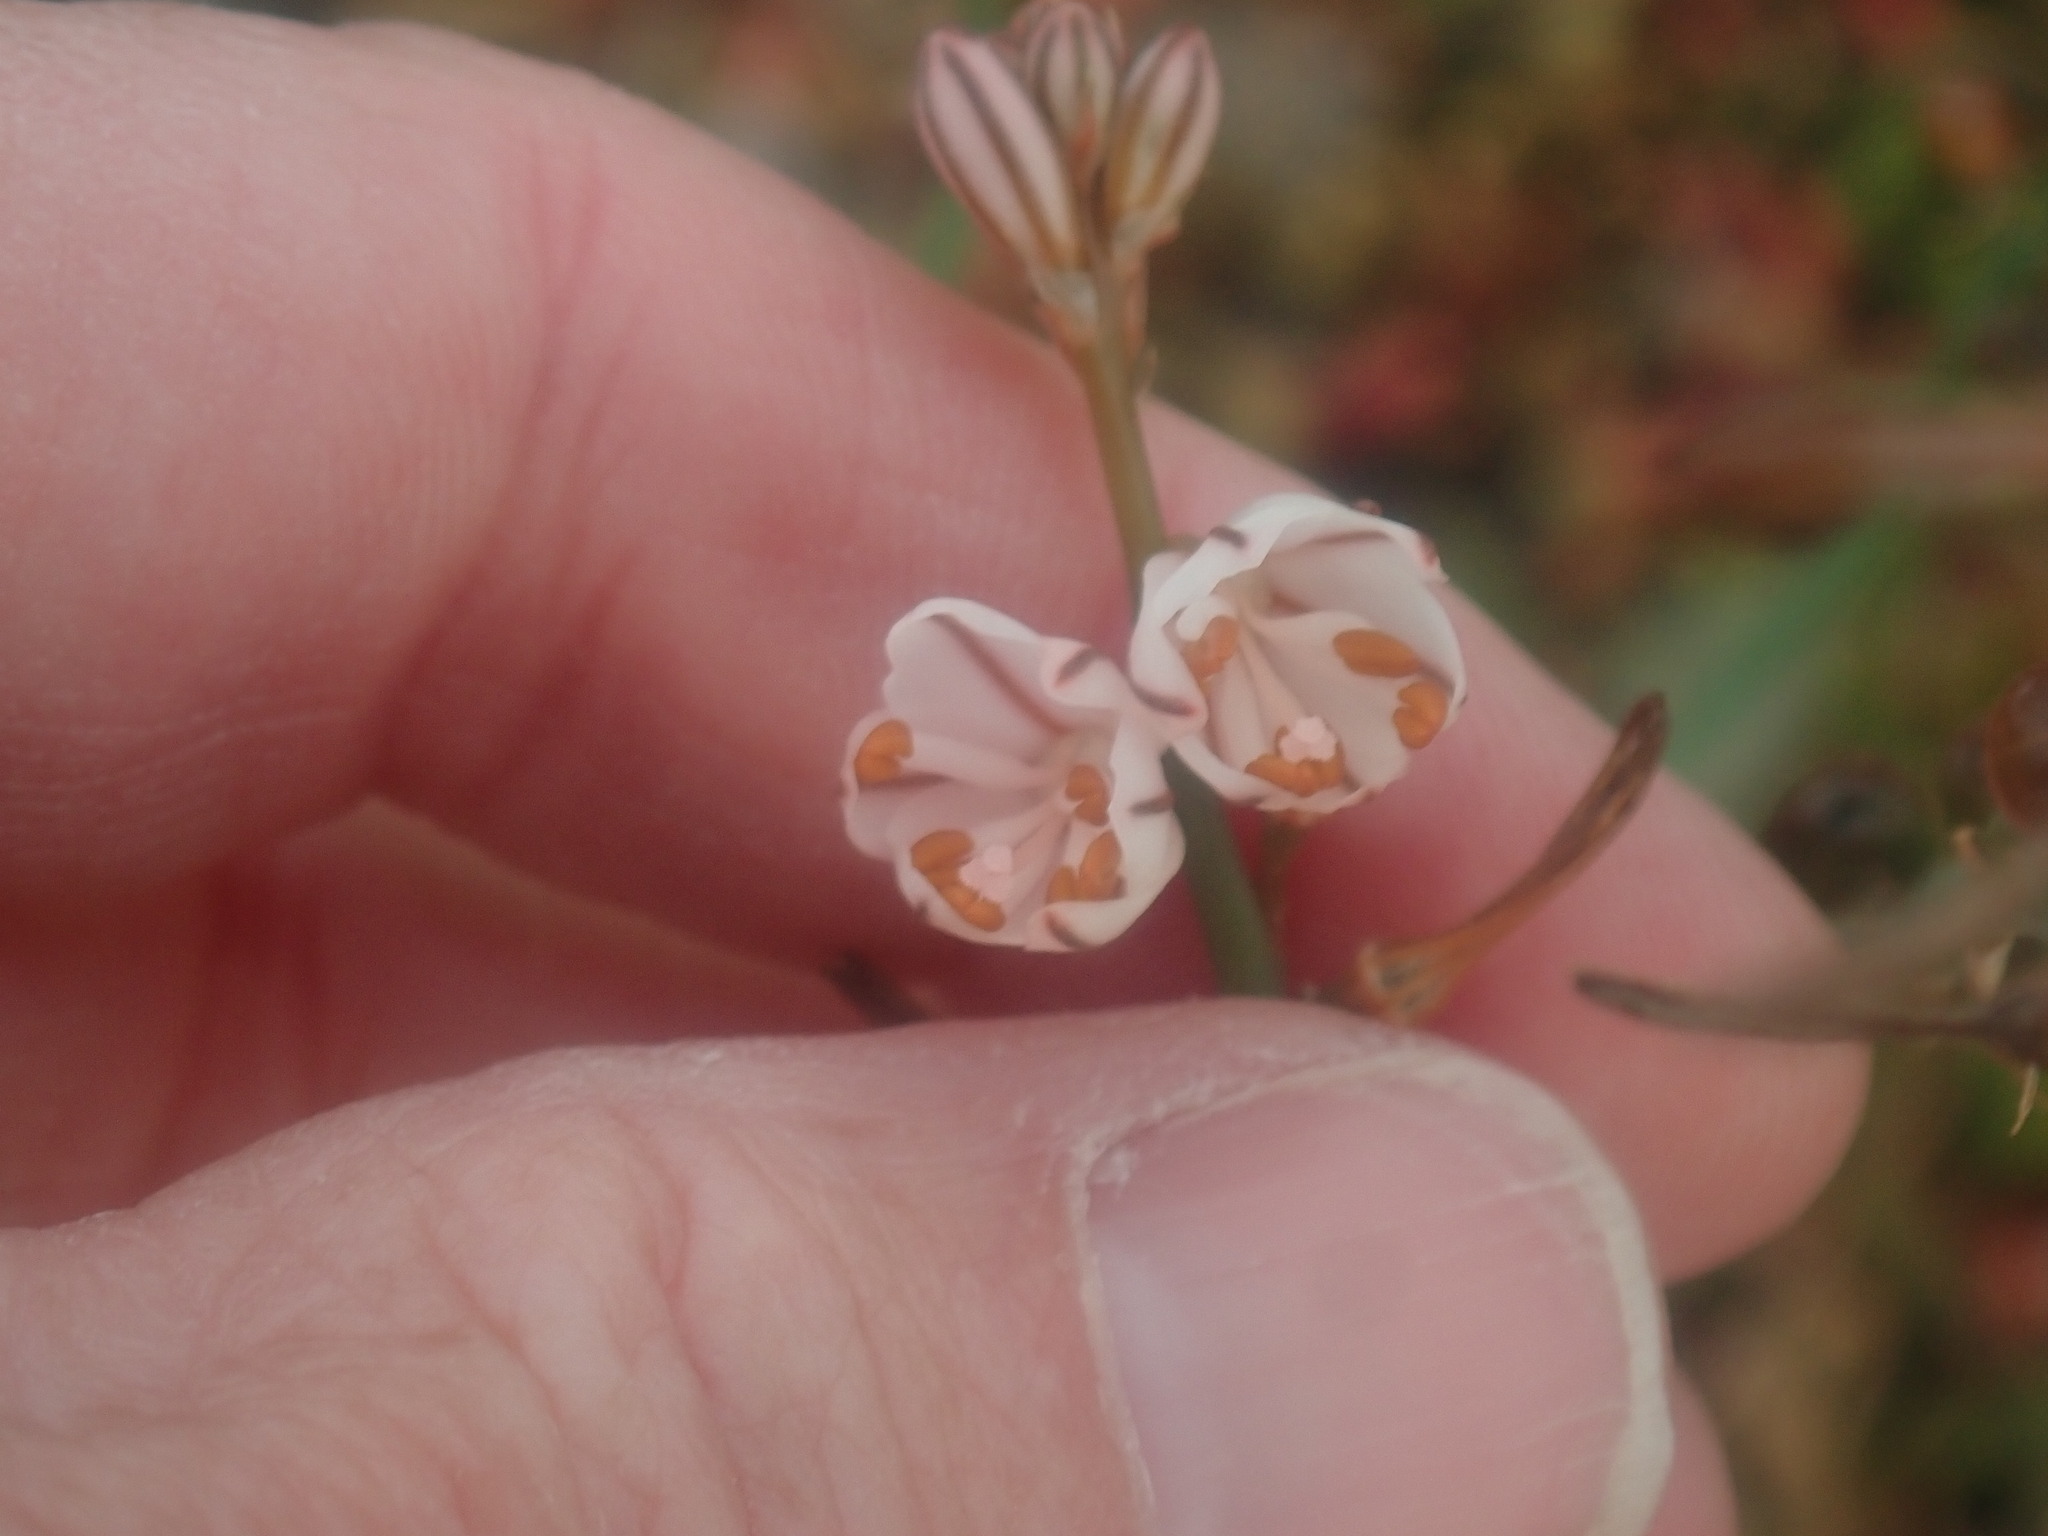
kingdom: Plantae
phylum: Tracheophyta
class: Liliopsida
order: Asparagales
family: Asphodelaceae
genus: Asphodelus
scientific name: Asphodelus fistulosus
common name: Onionweed
